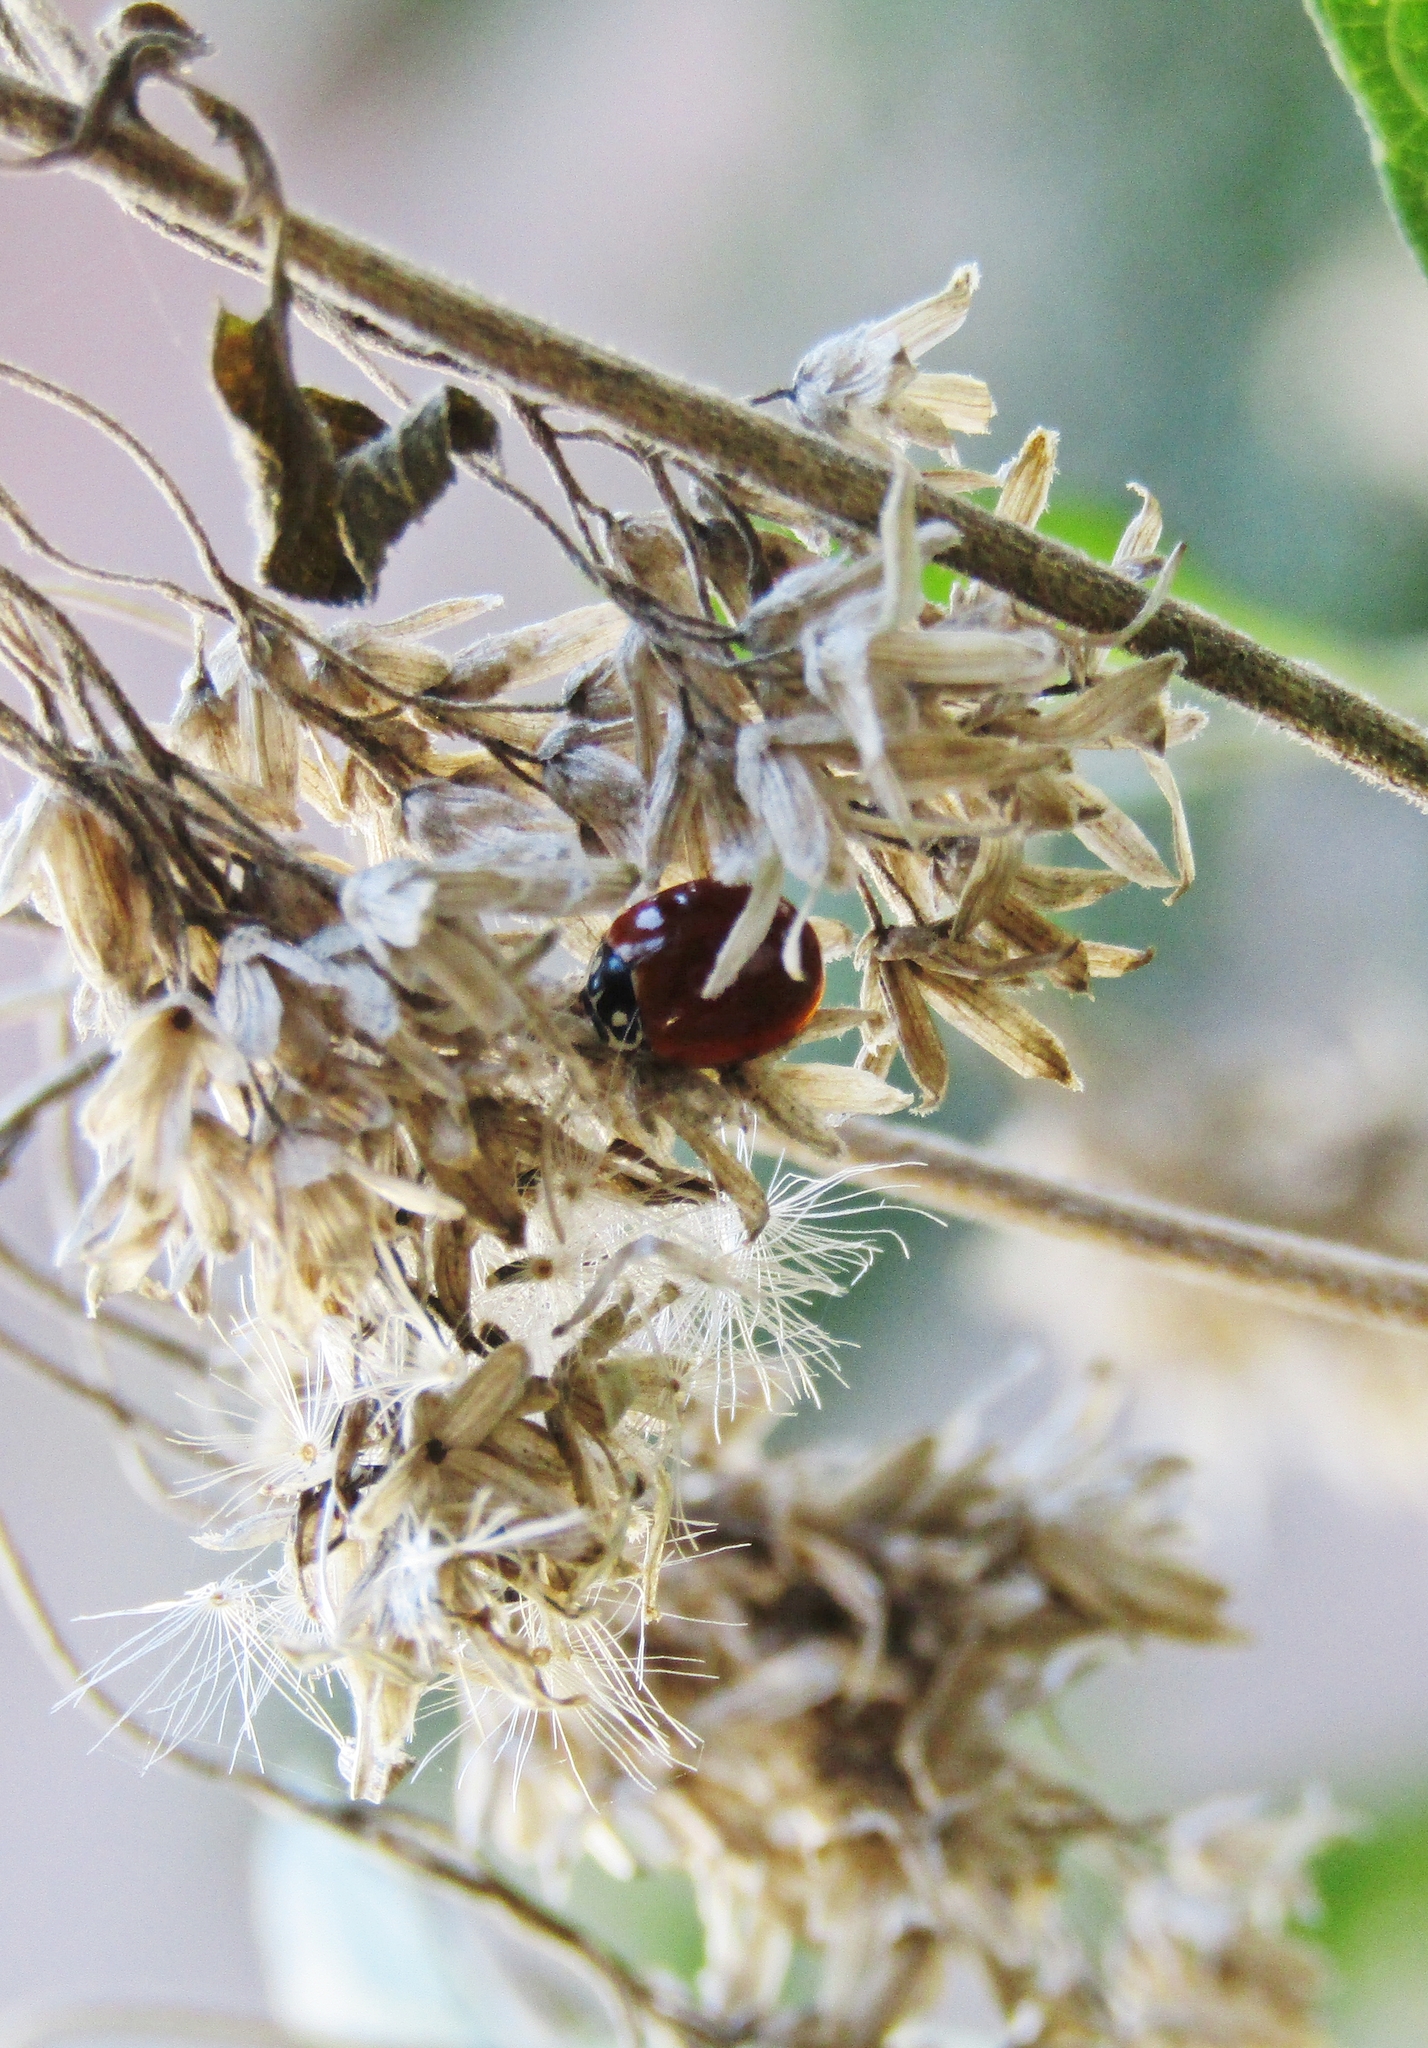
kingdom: Animalia
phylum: Arthropoda
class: Insecta
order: Coleoptera
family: Coccinellidae
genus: Cycloneda
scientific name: Cycloneda sanguinea
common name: Ladybird beetle
